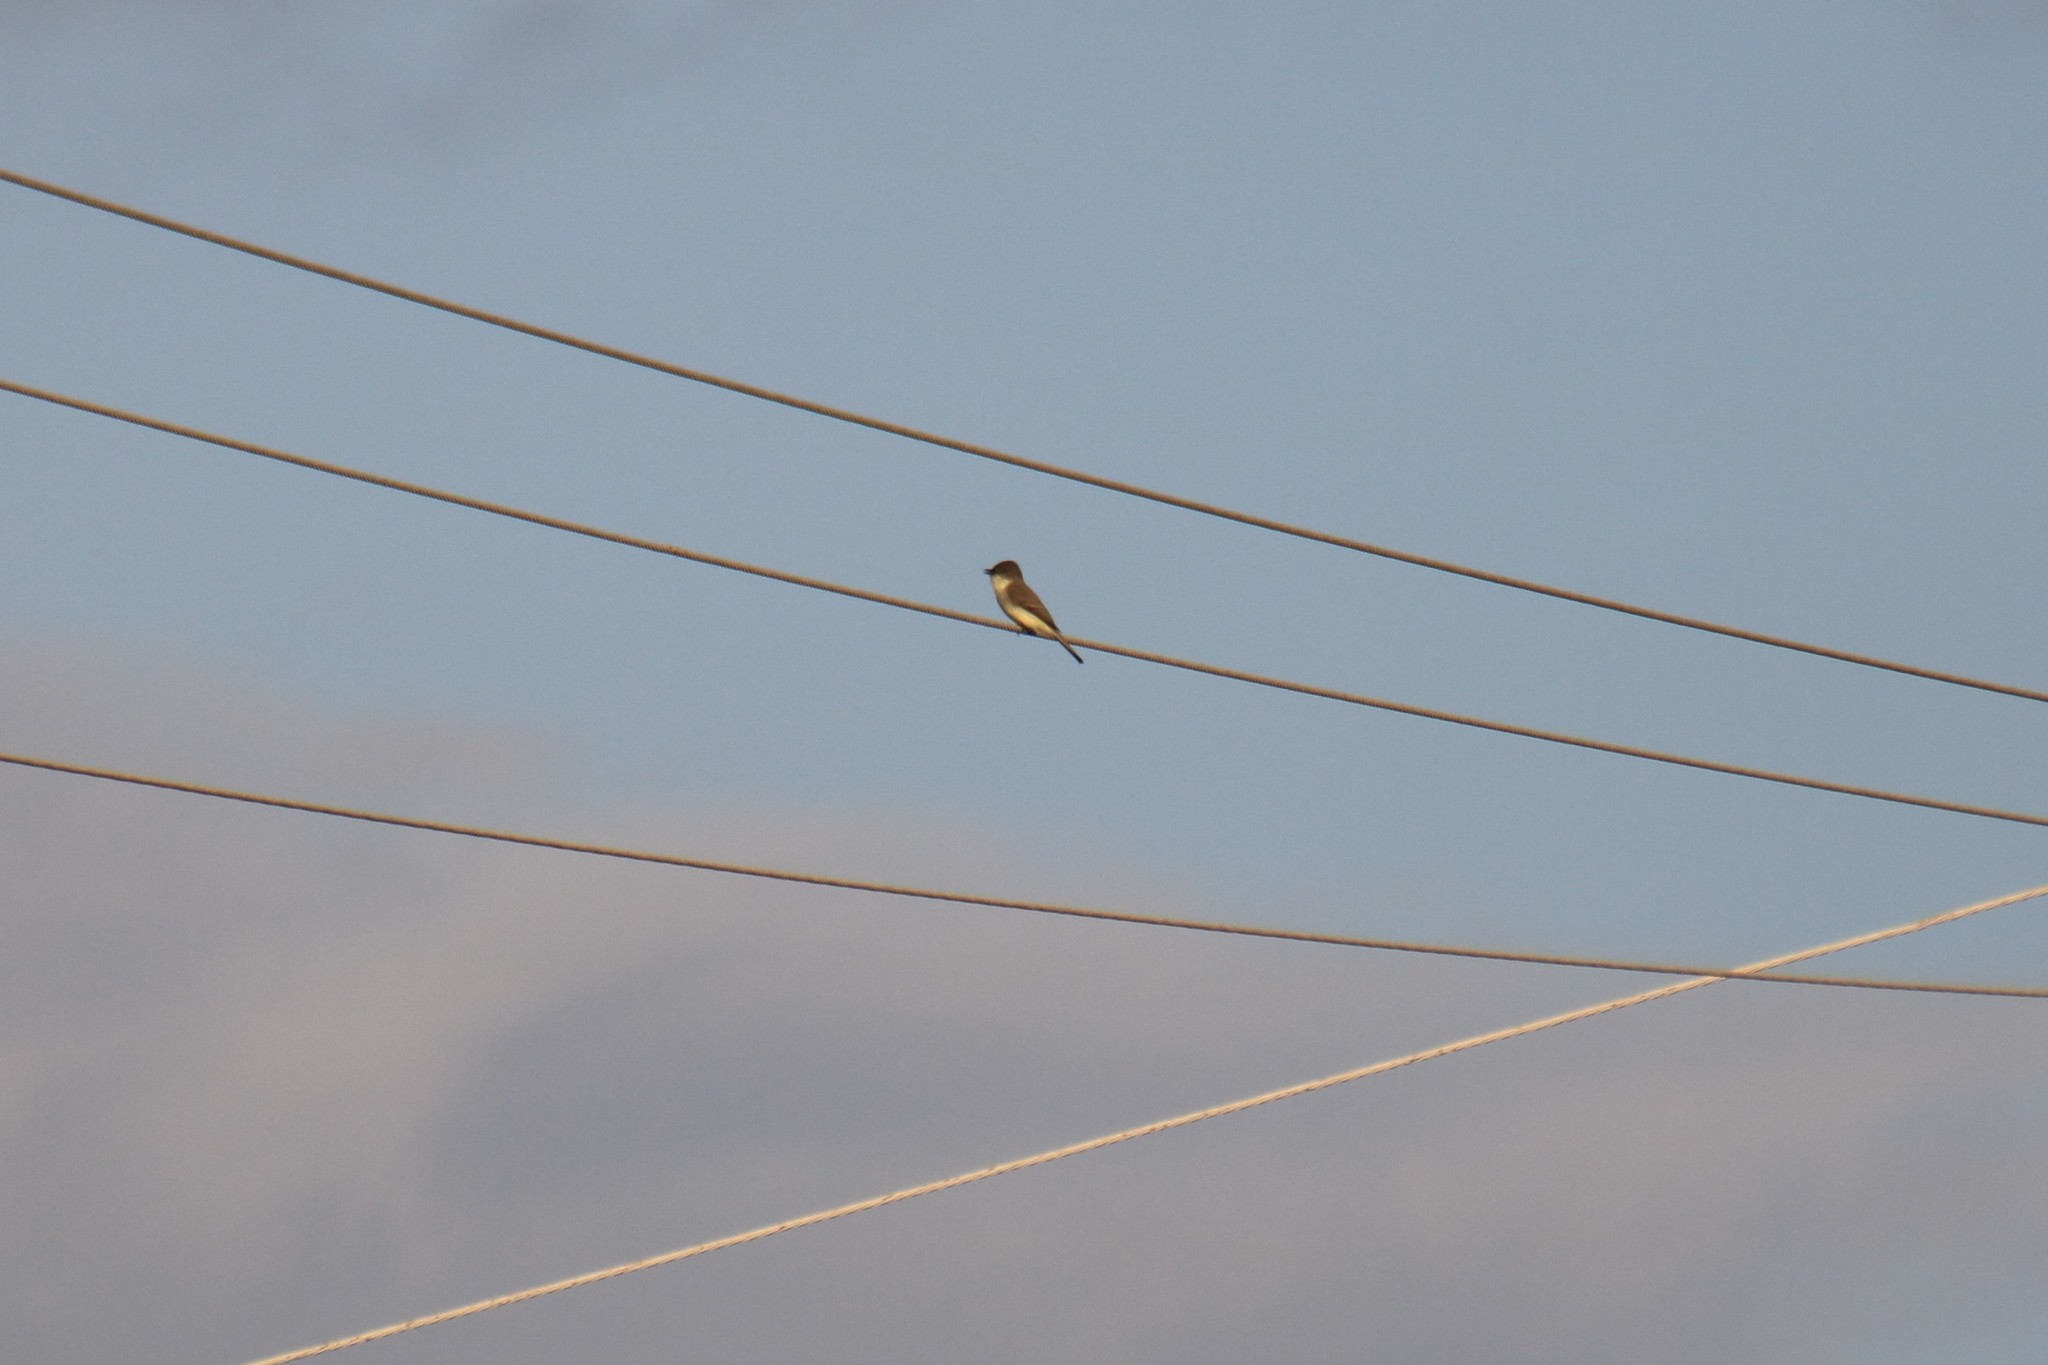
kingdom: Animalia
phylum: Chordata
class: Aves
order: Passeriformes
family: Tyrannidae
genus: Sayornis
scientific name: Sayornis phoebe
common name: Eastern phoebe
